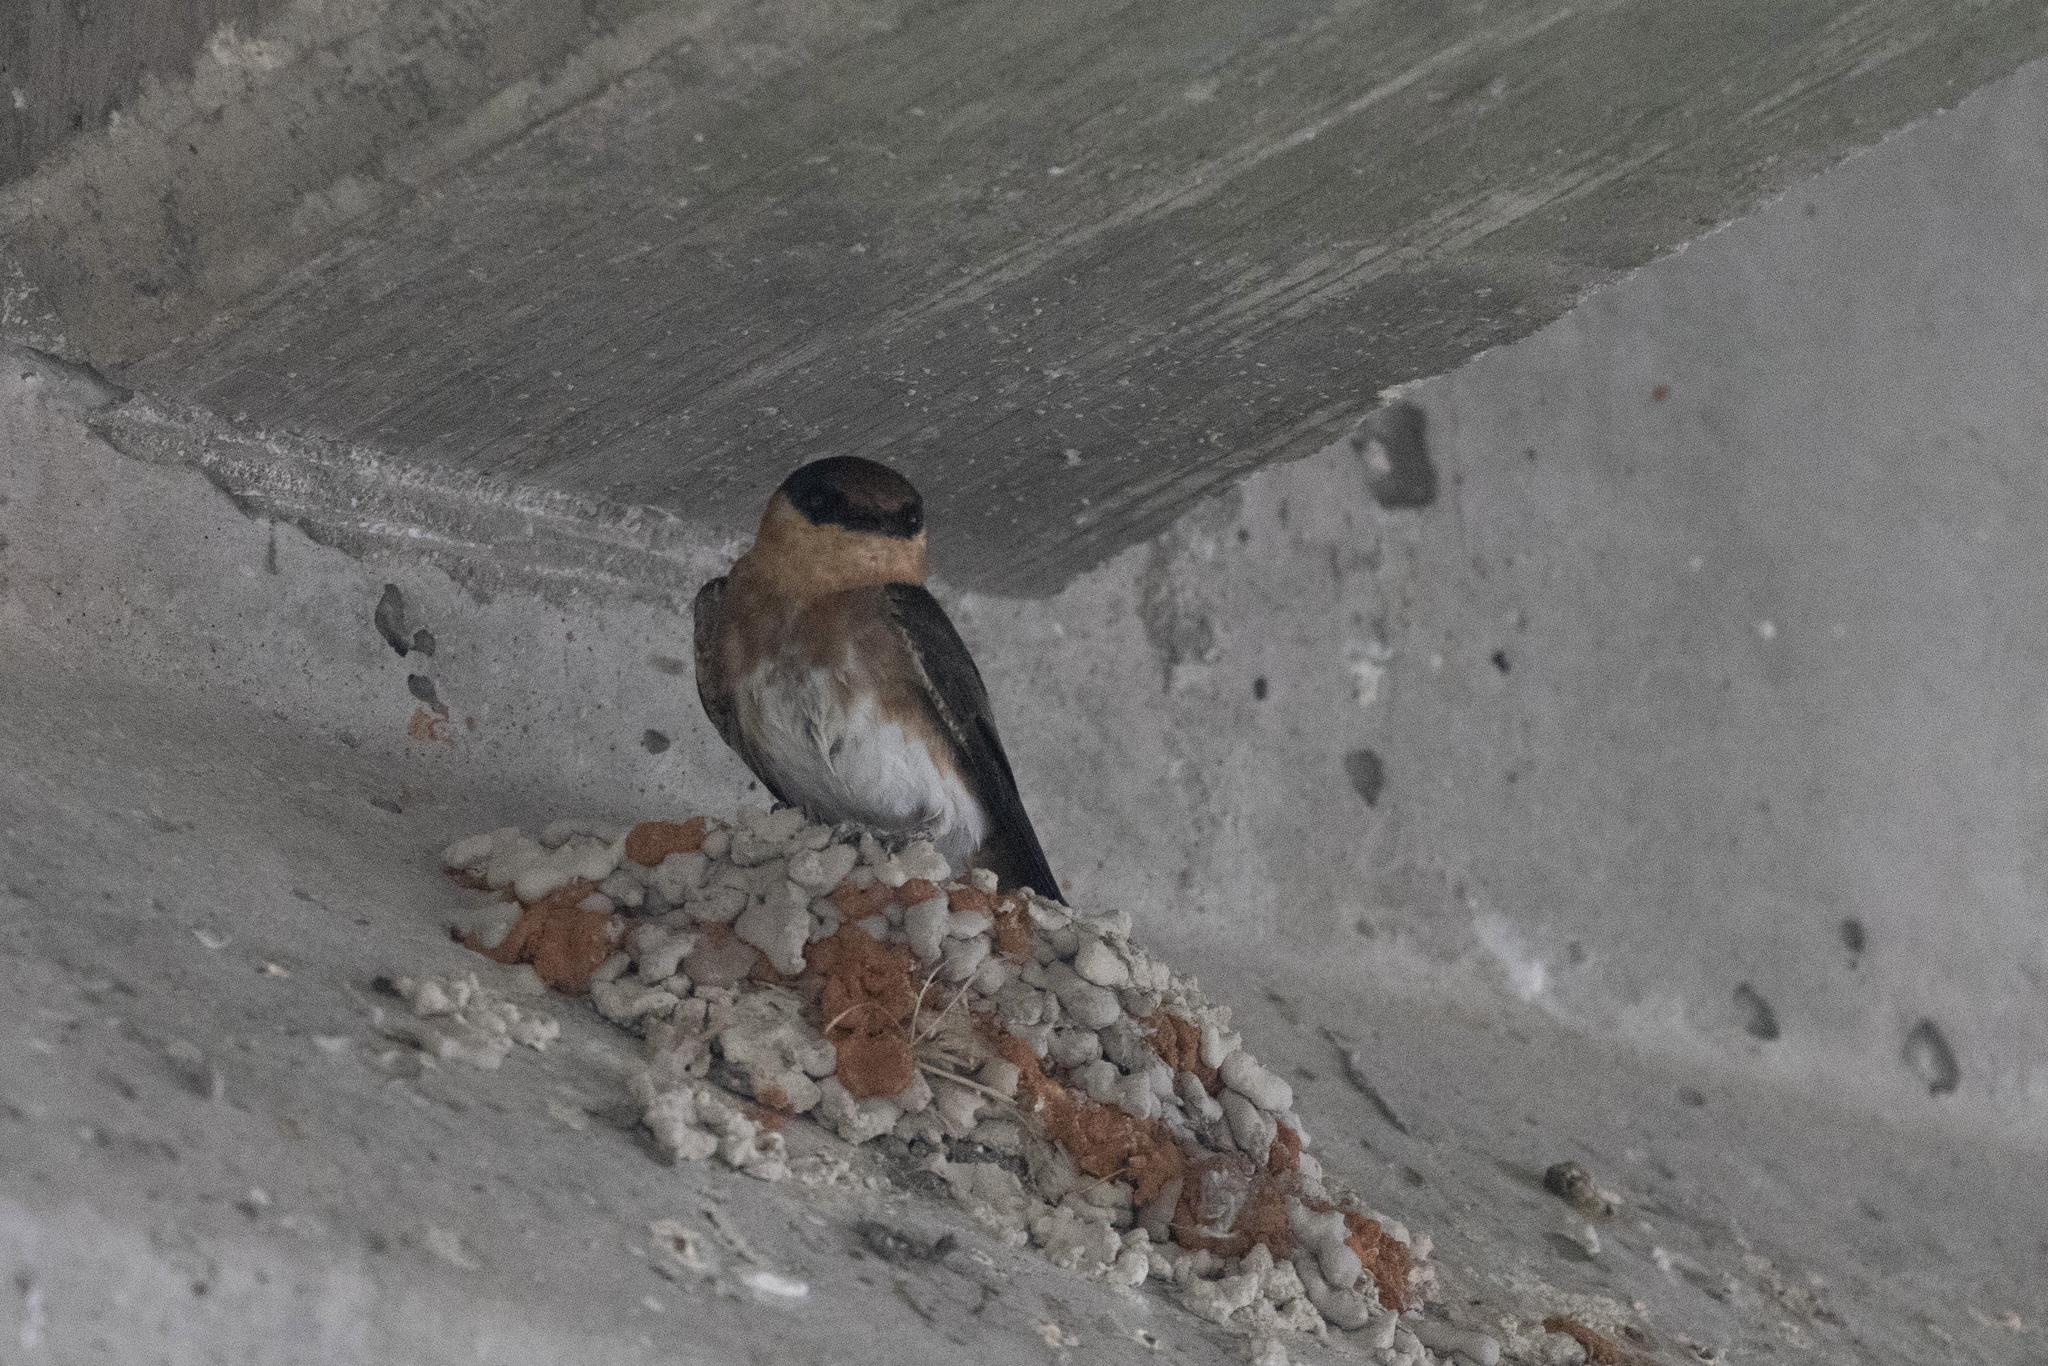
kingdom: Animalia
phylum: Chordata
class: Aves
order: Passeriformes
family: Hirundinidae
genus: Petrochelidon
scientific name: Petrochelidon fulva
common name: Cave swallow
